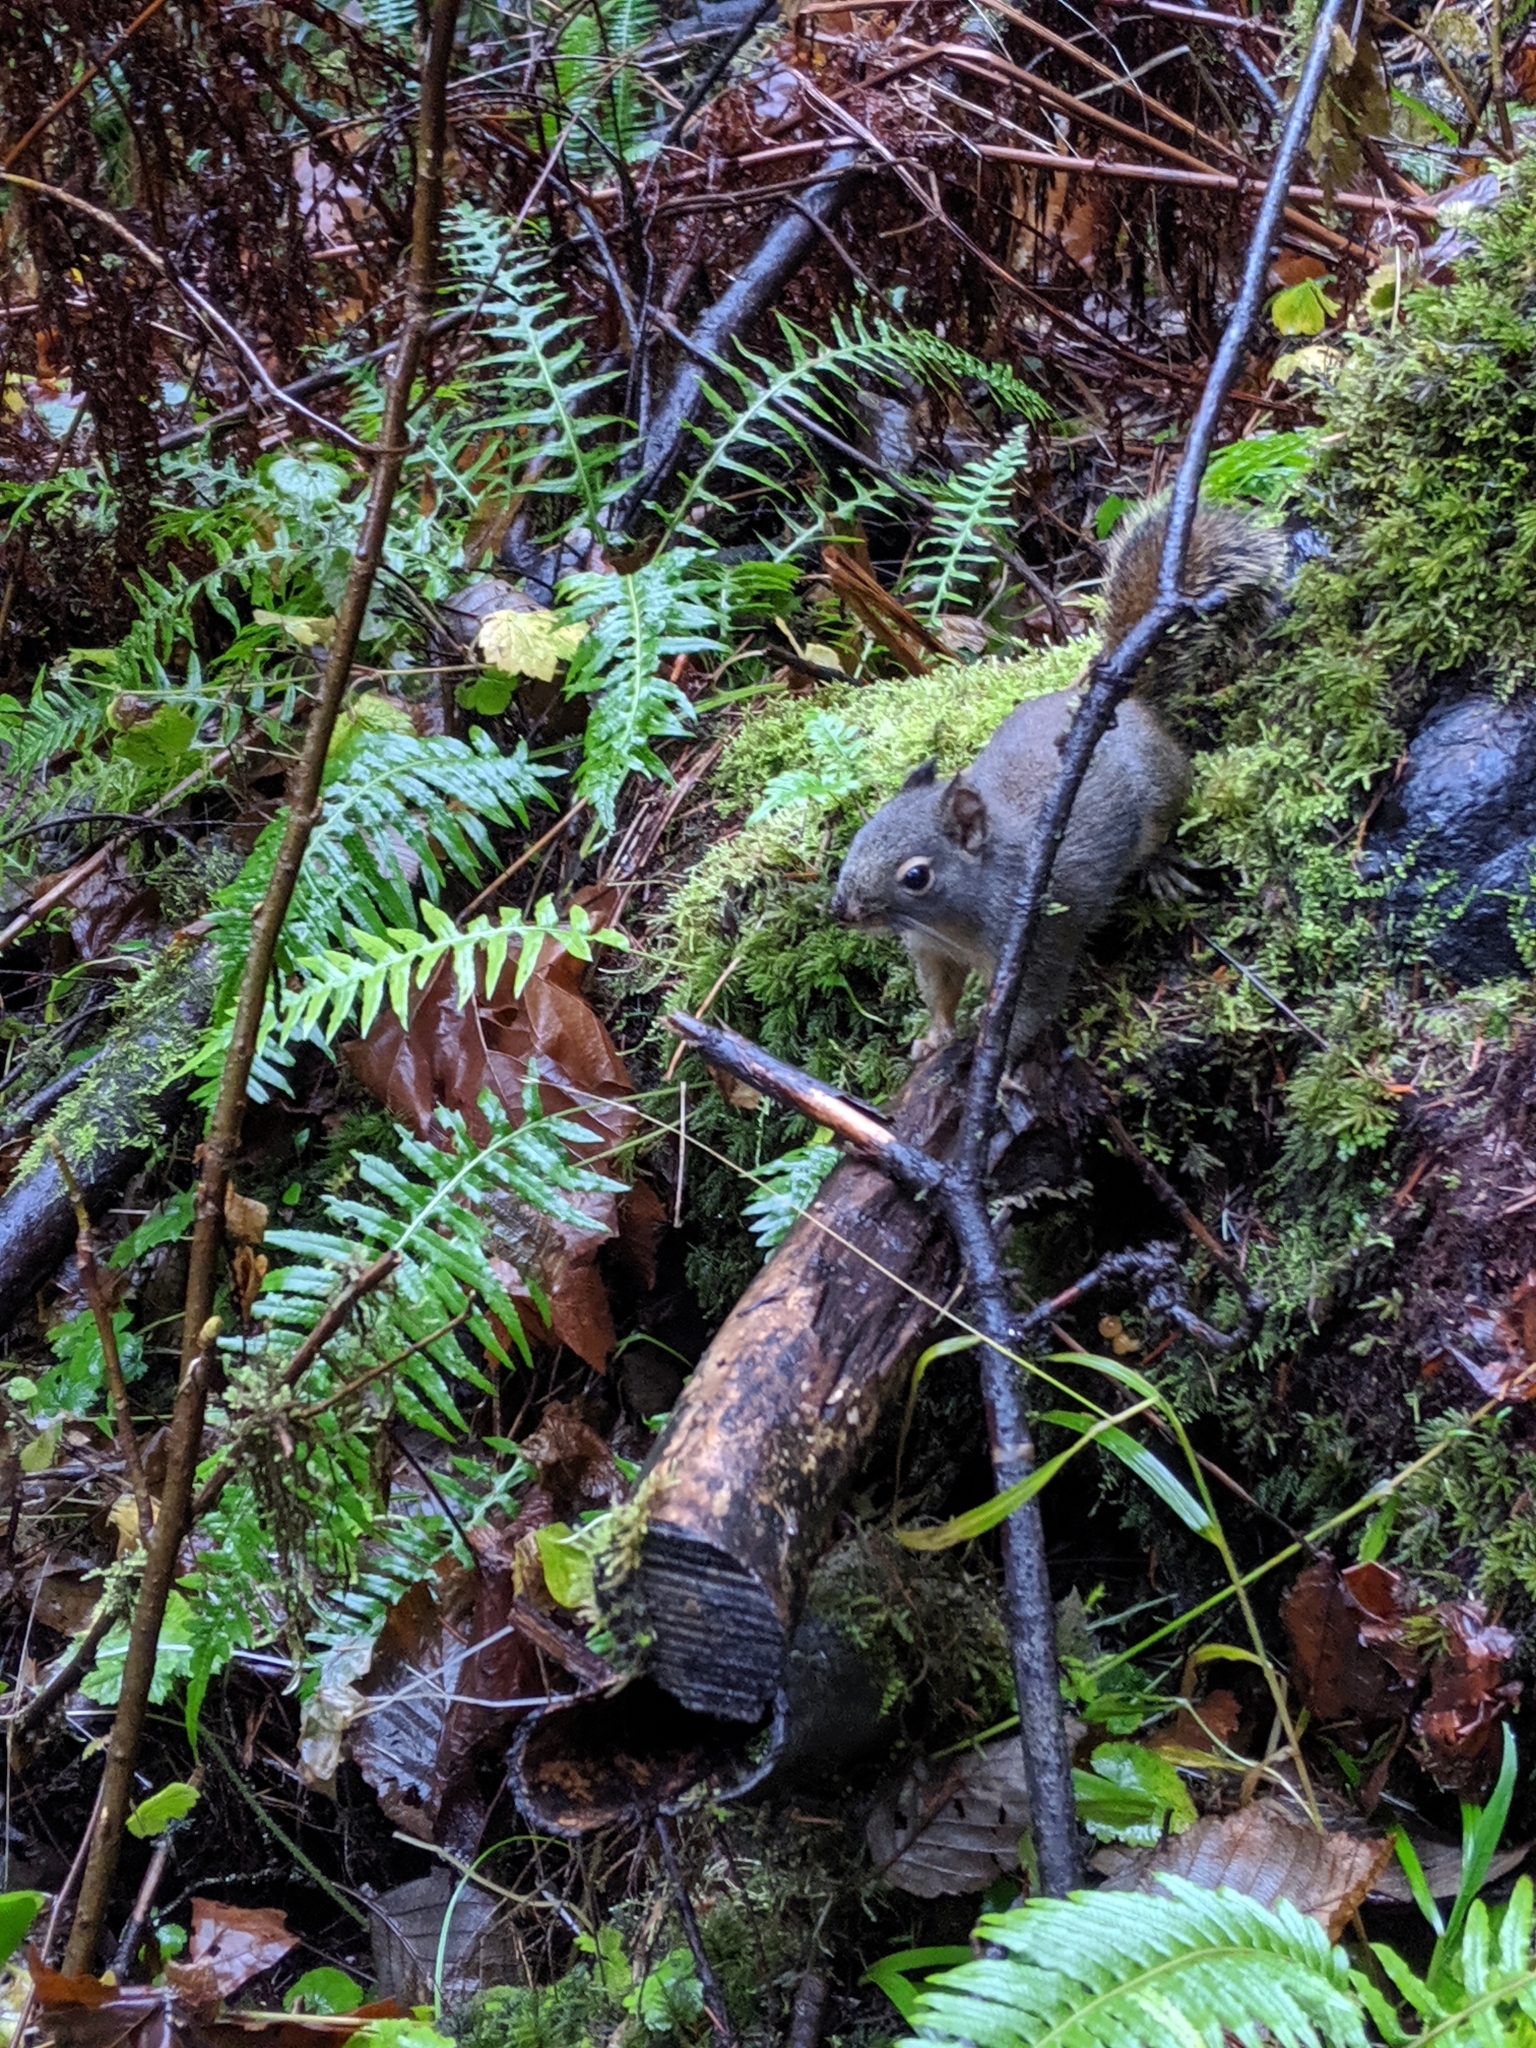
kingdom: Animalia
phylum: Chordata
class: Mammalia
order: Rodentia
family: Sciuridae
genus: Tamiasciurus
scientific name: Tamiasciurus douglasii
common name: Douglas's squirrel
